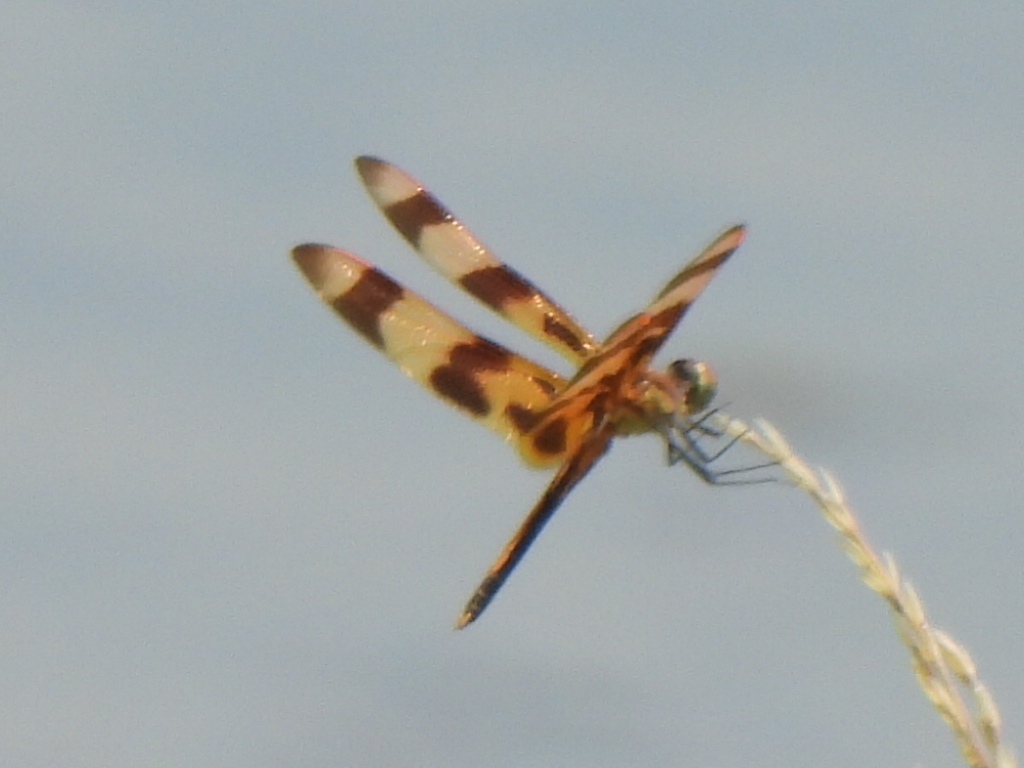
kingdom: Animalia
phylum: Arthropoda
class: Insecta
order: Odonata
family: Libellulidae
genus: Celithemis
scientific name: Celithemis eponina
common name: Halloween pennant
